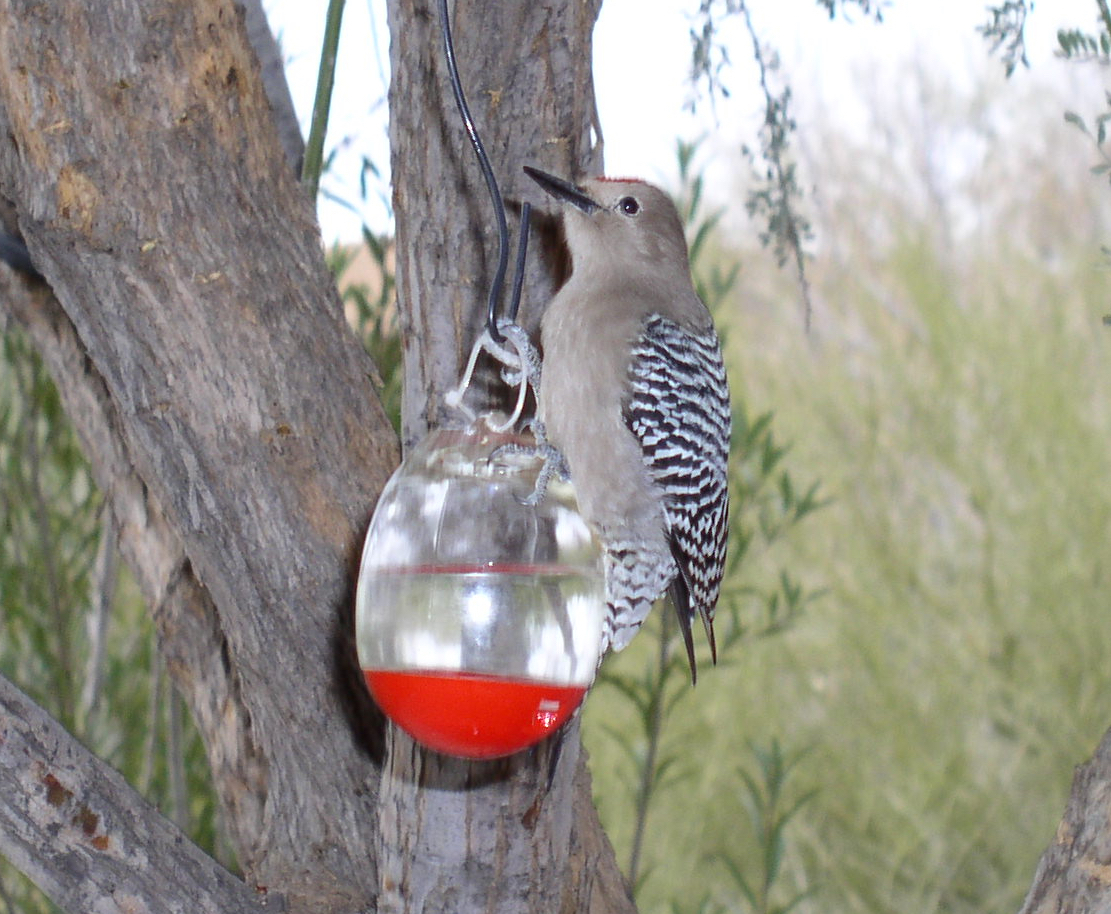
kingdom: Animalia
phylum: Chordata
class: Aves
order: Piciformes
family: Picidae
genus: Melanerpes
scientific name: Melanerpes uropygialis
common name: Gila woodpecker
